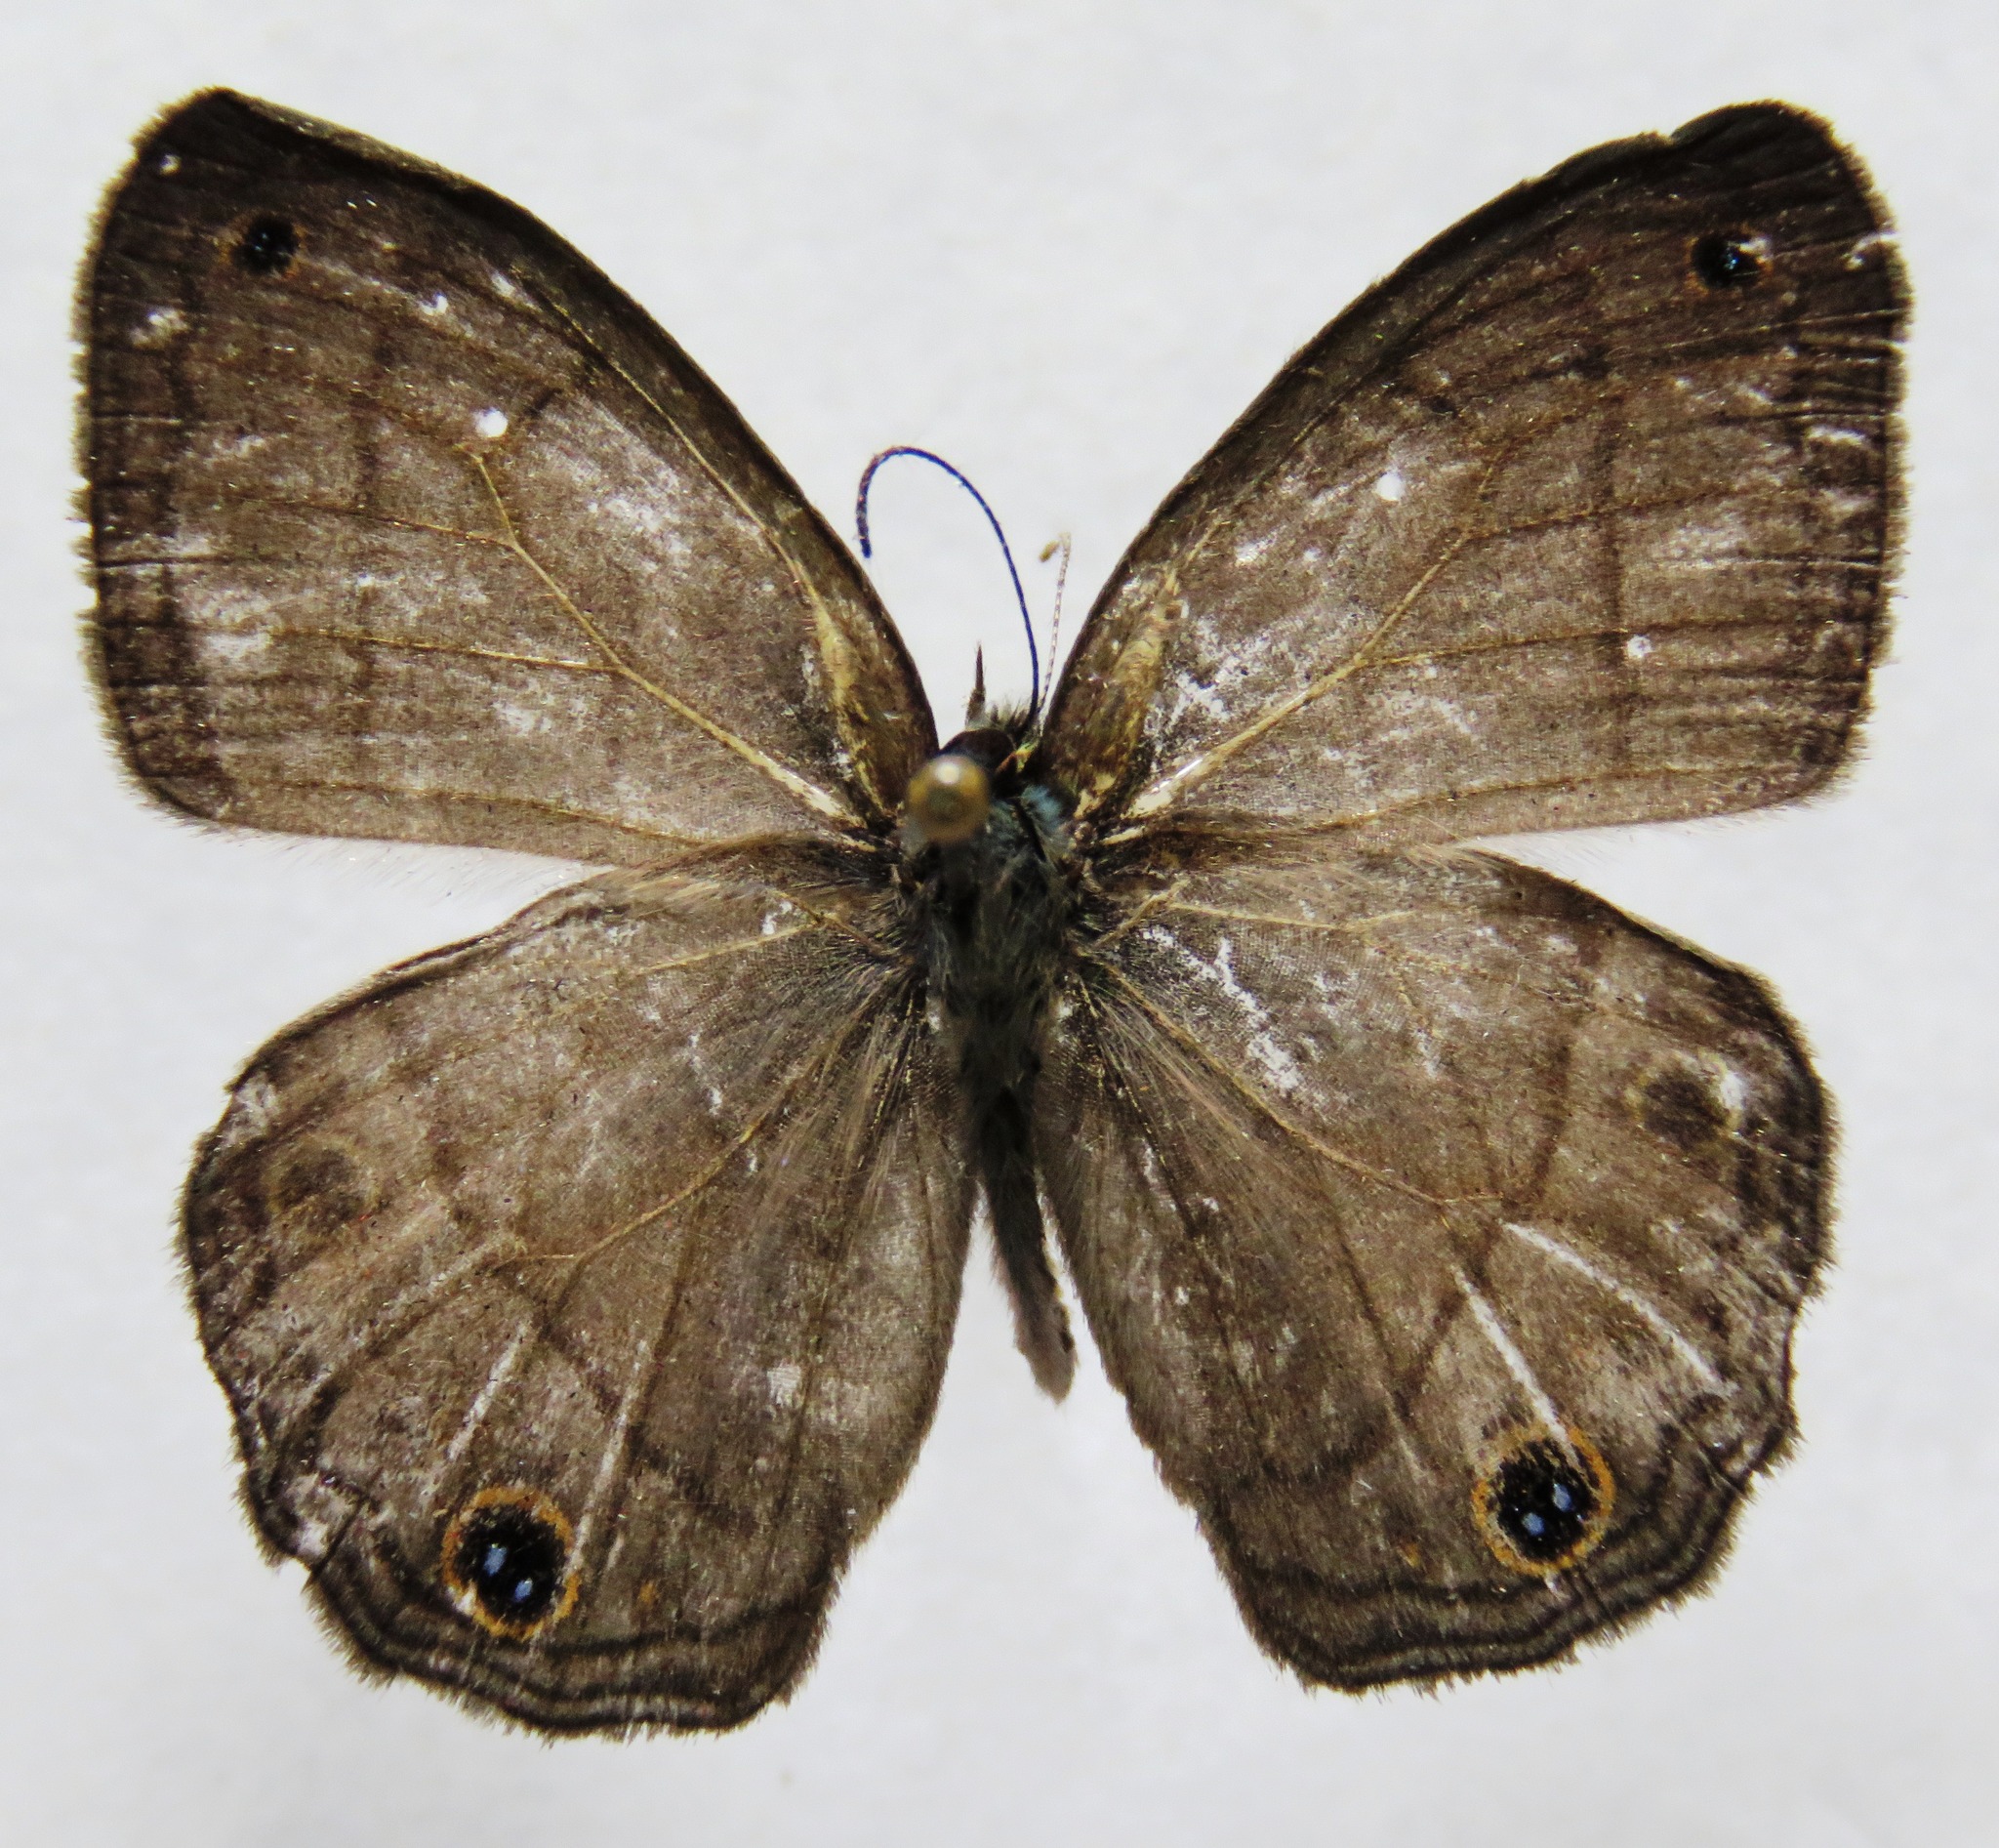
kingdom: Animalia
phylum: Arthropoda
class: Insecta
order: Lepidoptera
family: Nymphalidae
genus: Euptychia
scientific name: Euptychia Cissia pompilia
